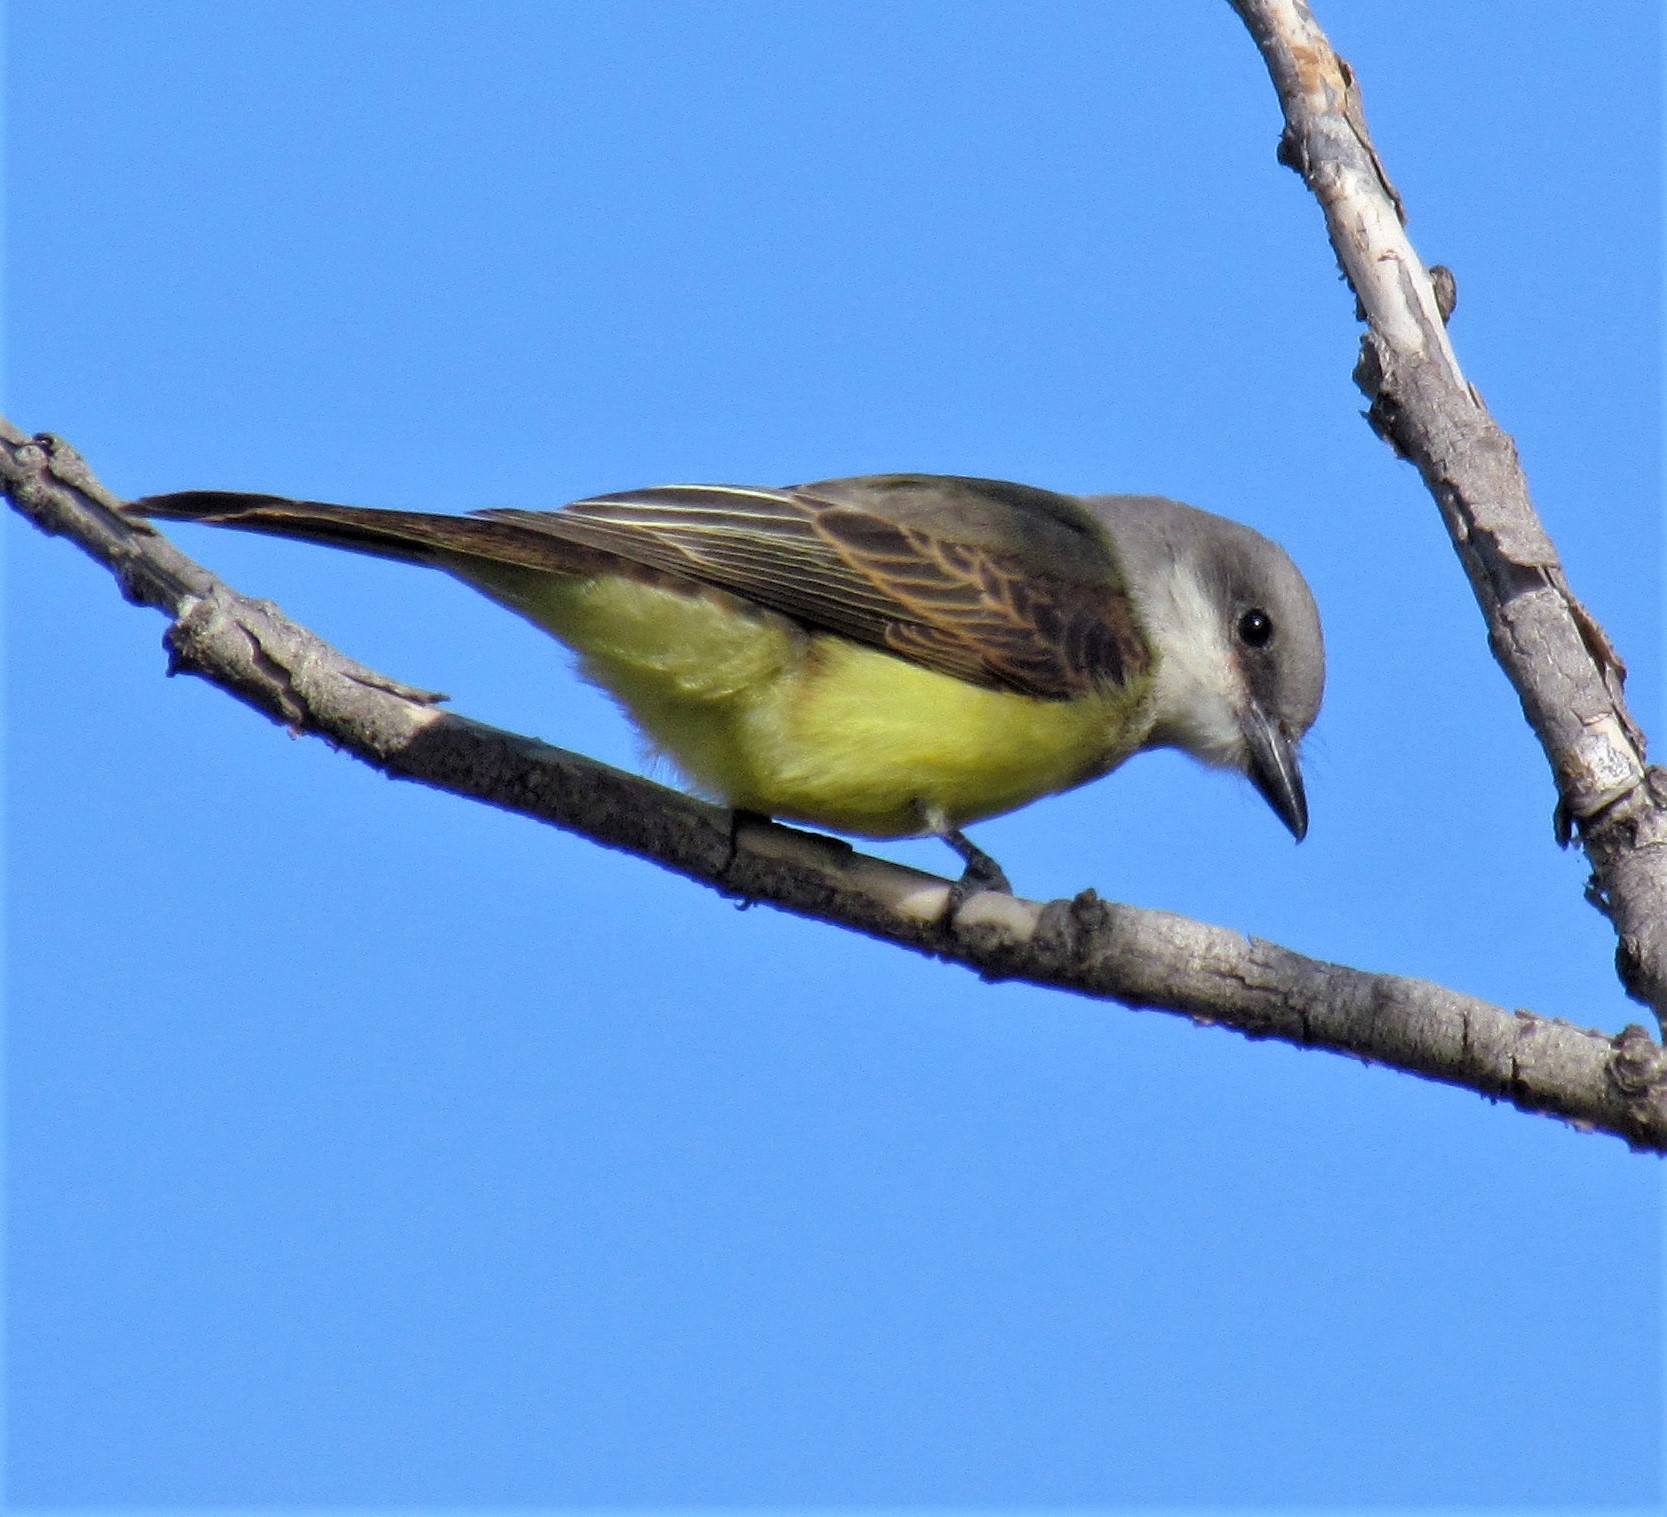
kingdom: Animalia
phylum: Chordata
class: Aves
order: Passeriformes
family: Tyrannidae
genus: Tyrannus
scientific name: Tyrannus melancholicus
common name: Tropical kingbird
